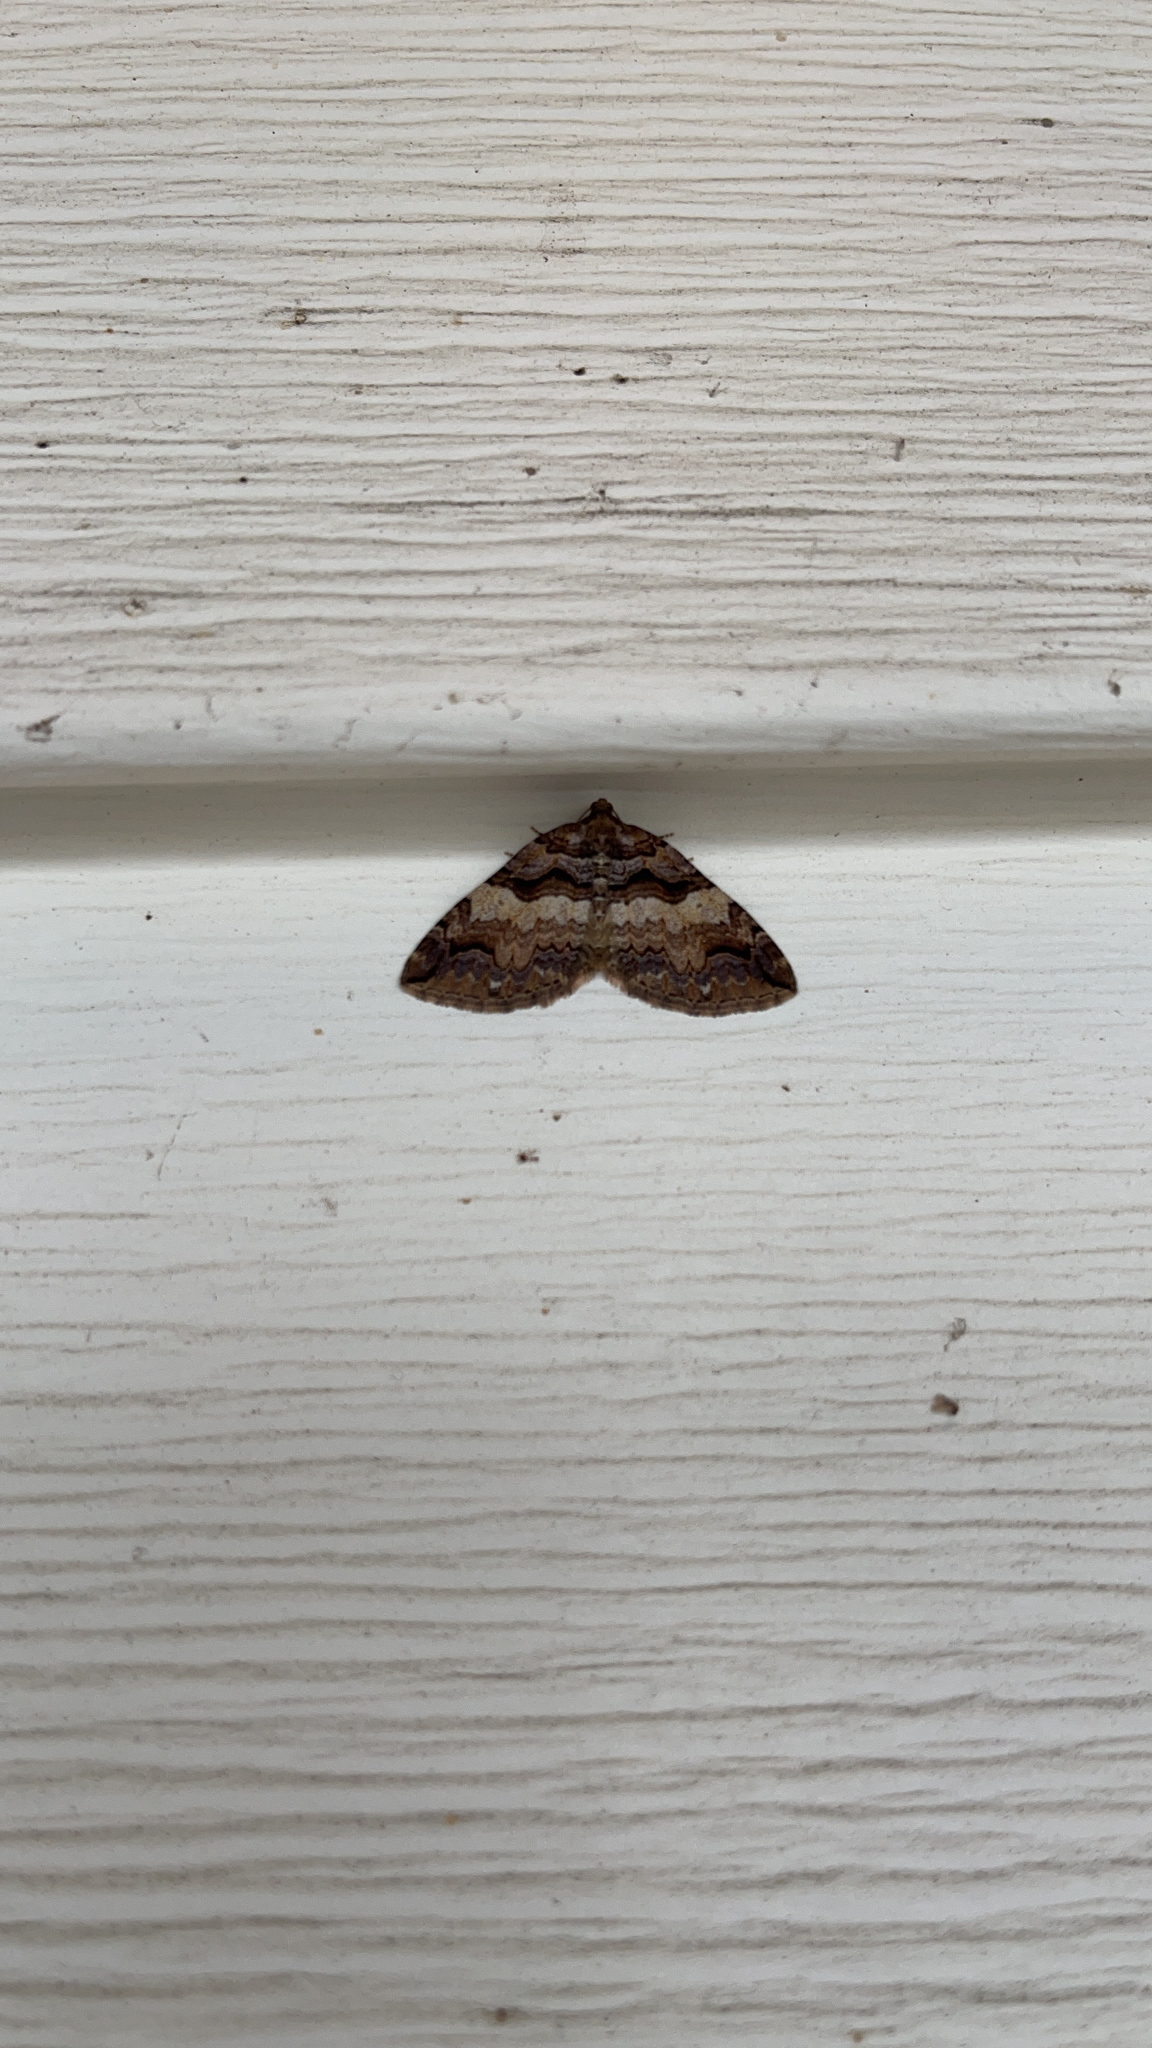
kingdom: Animalia
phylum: Arthropoda
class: Insecta
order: Lepidoptera
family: Geometridae
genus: Anticlea
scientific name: Anticlea vasiliata
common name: Variable carpet
